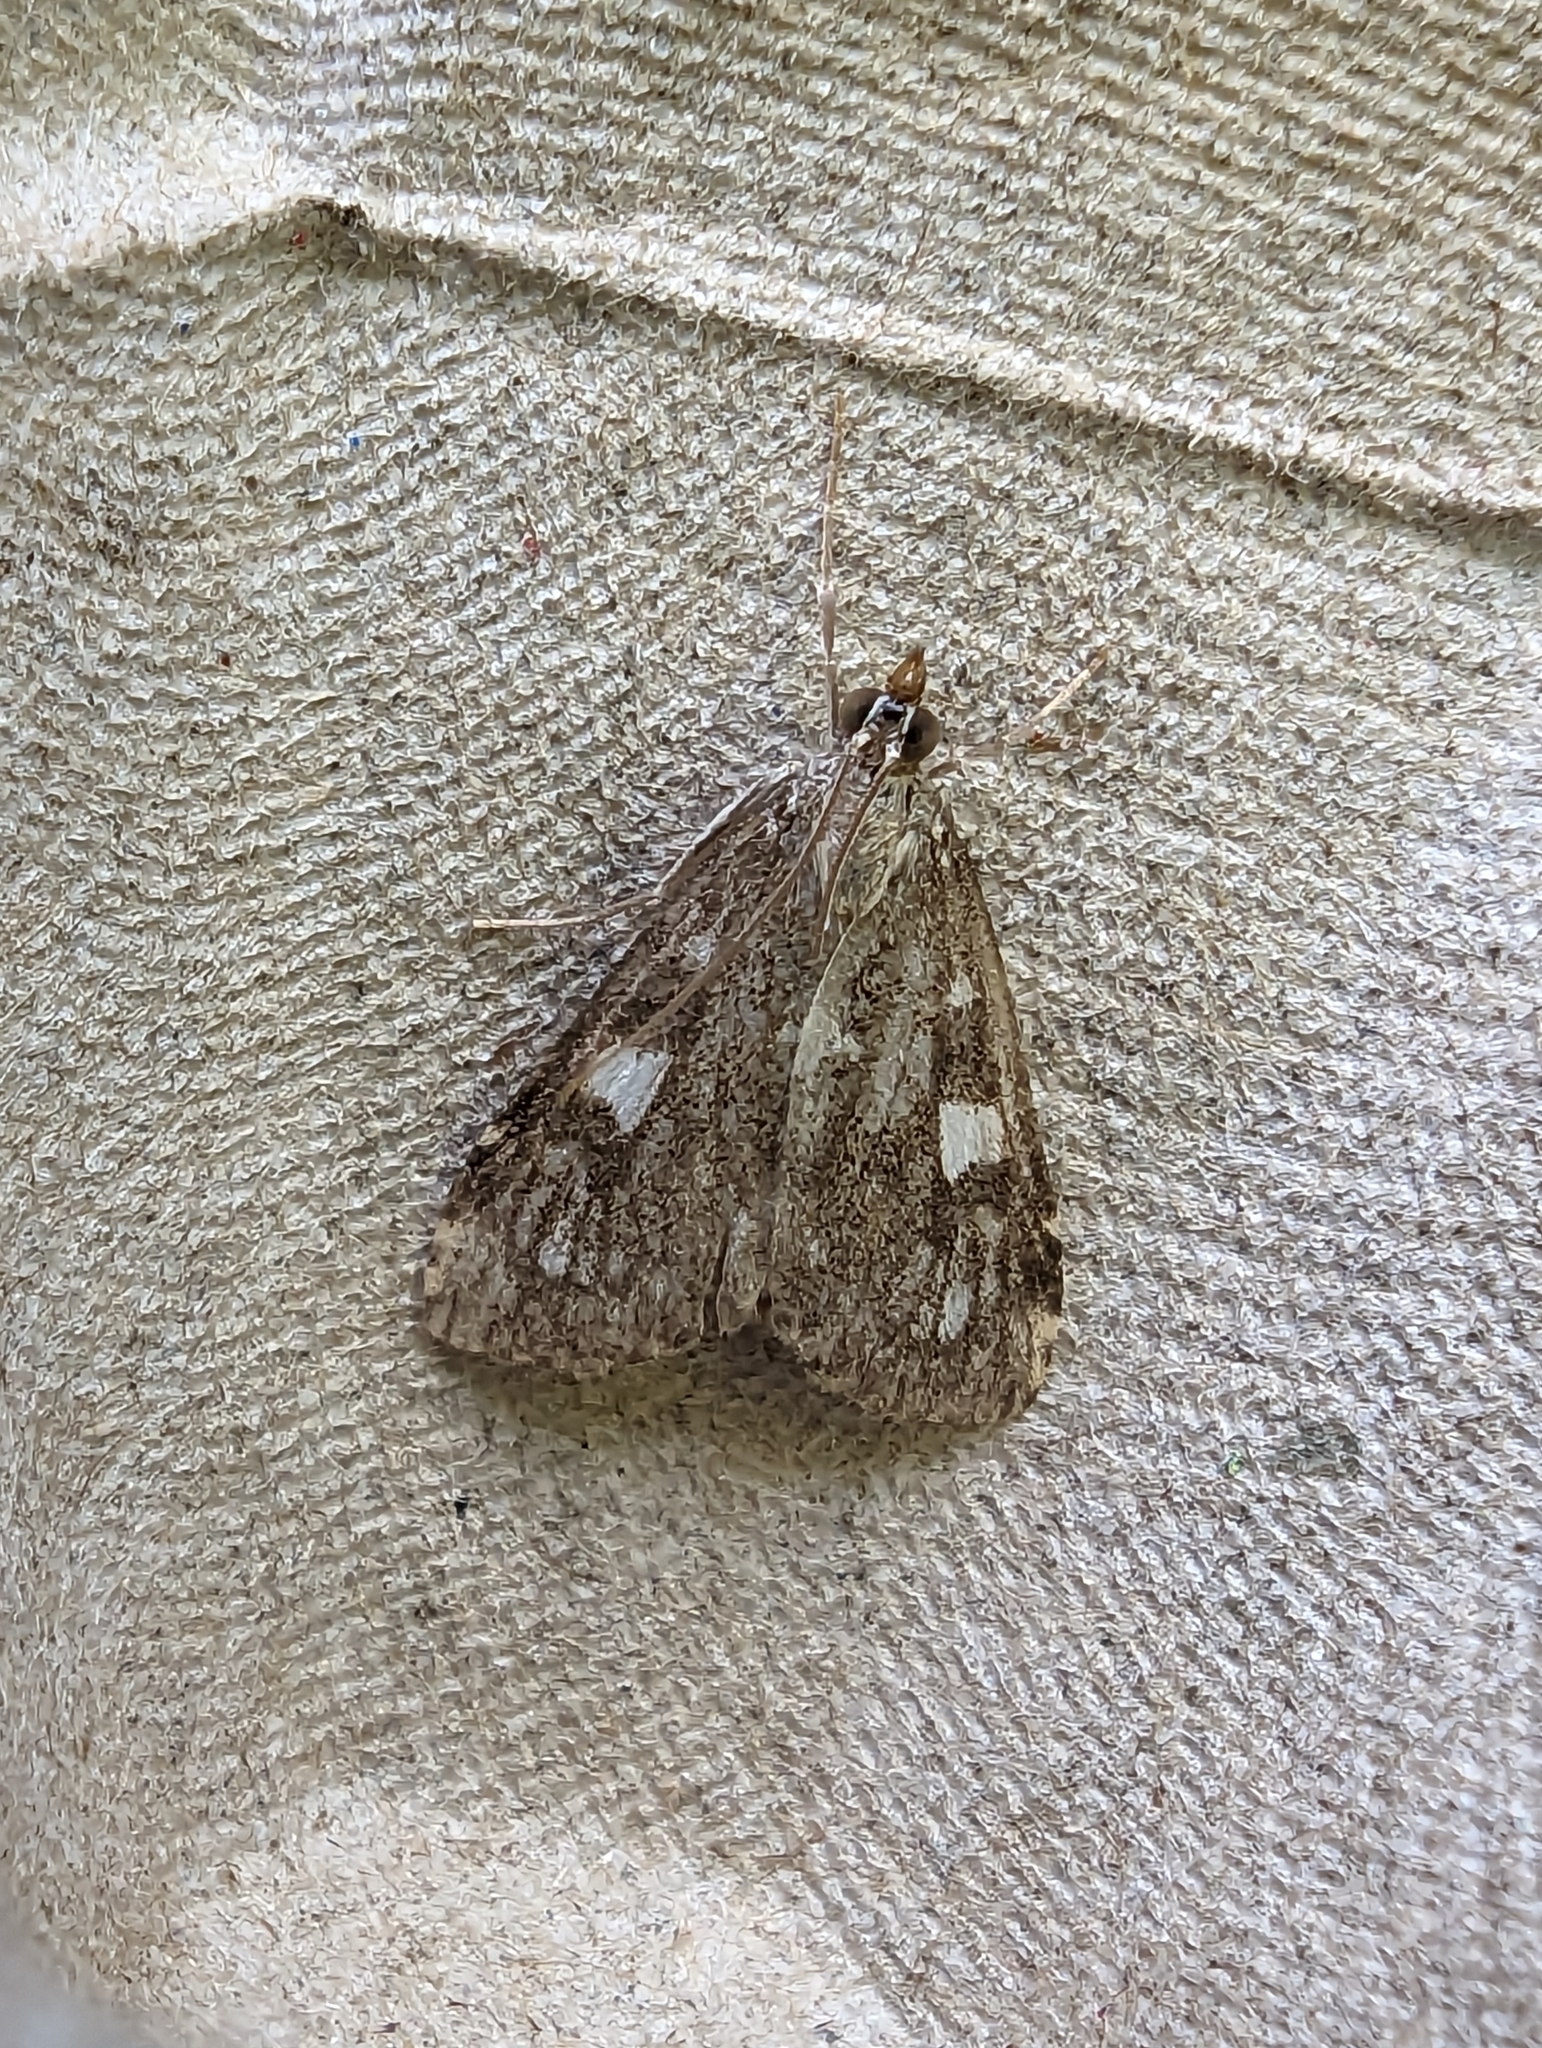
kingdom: Animalia
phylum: Arthropoda
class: Insecta
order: Lepidoptera
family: Crambidae
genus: Udea
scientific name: Udea olivalis
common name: Olive pearl
